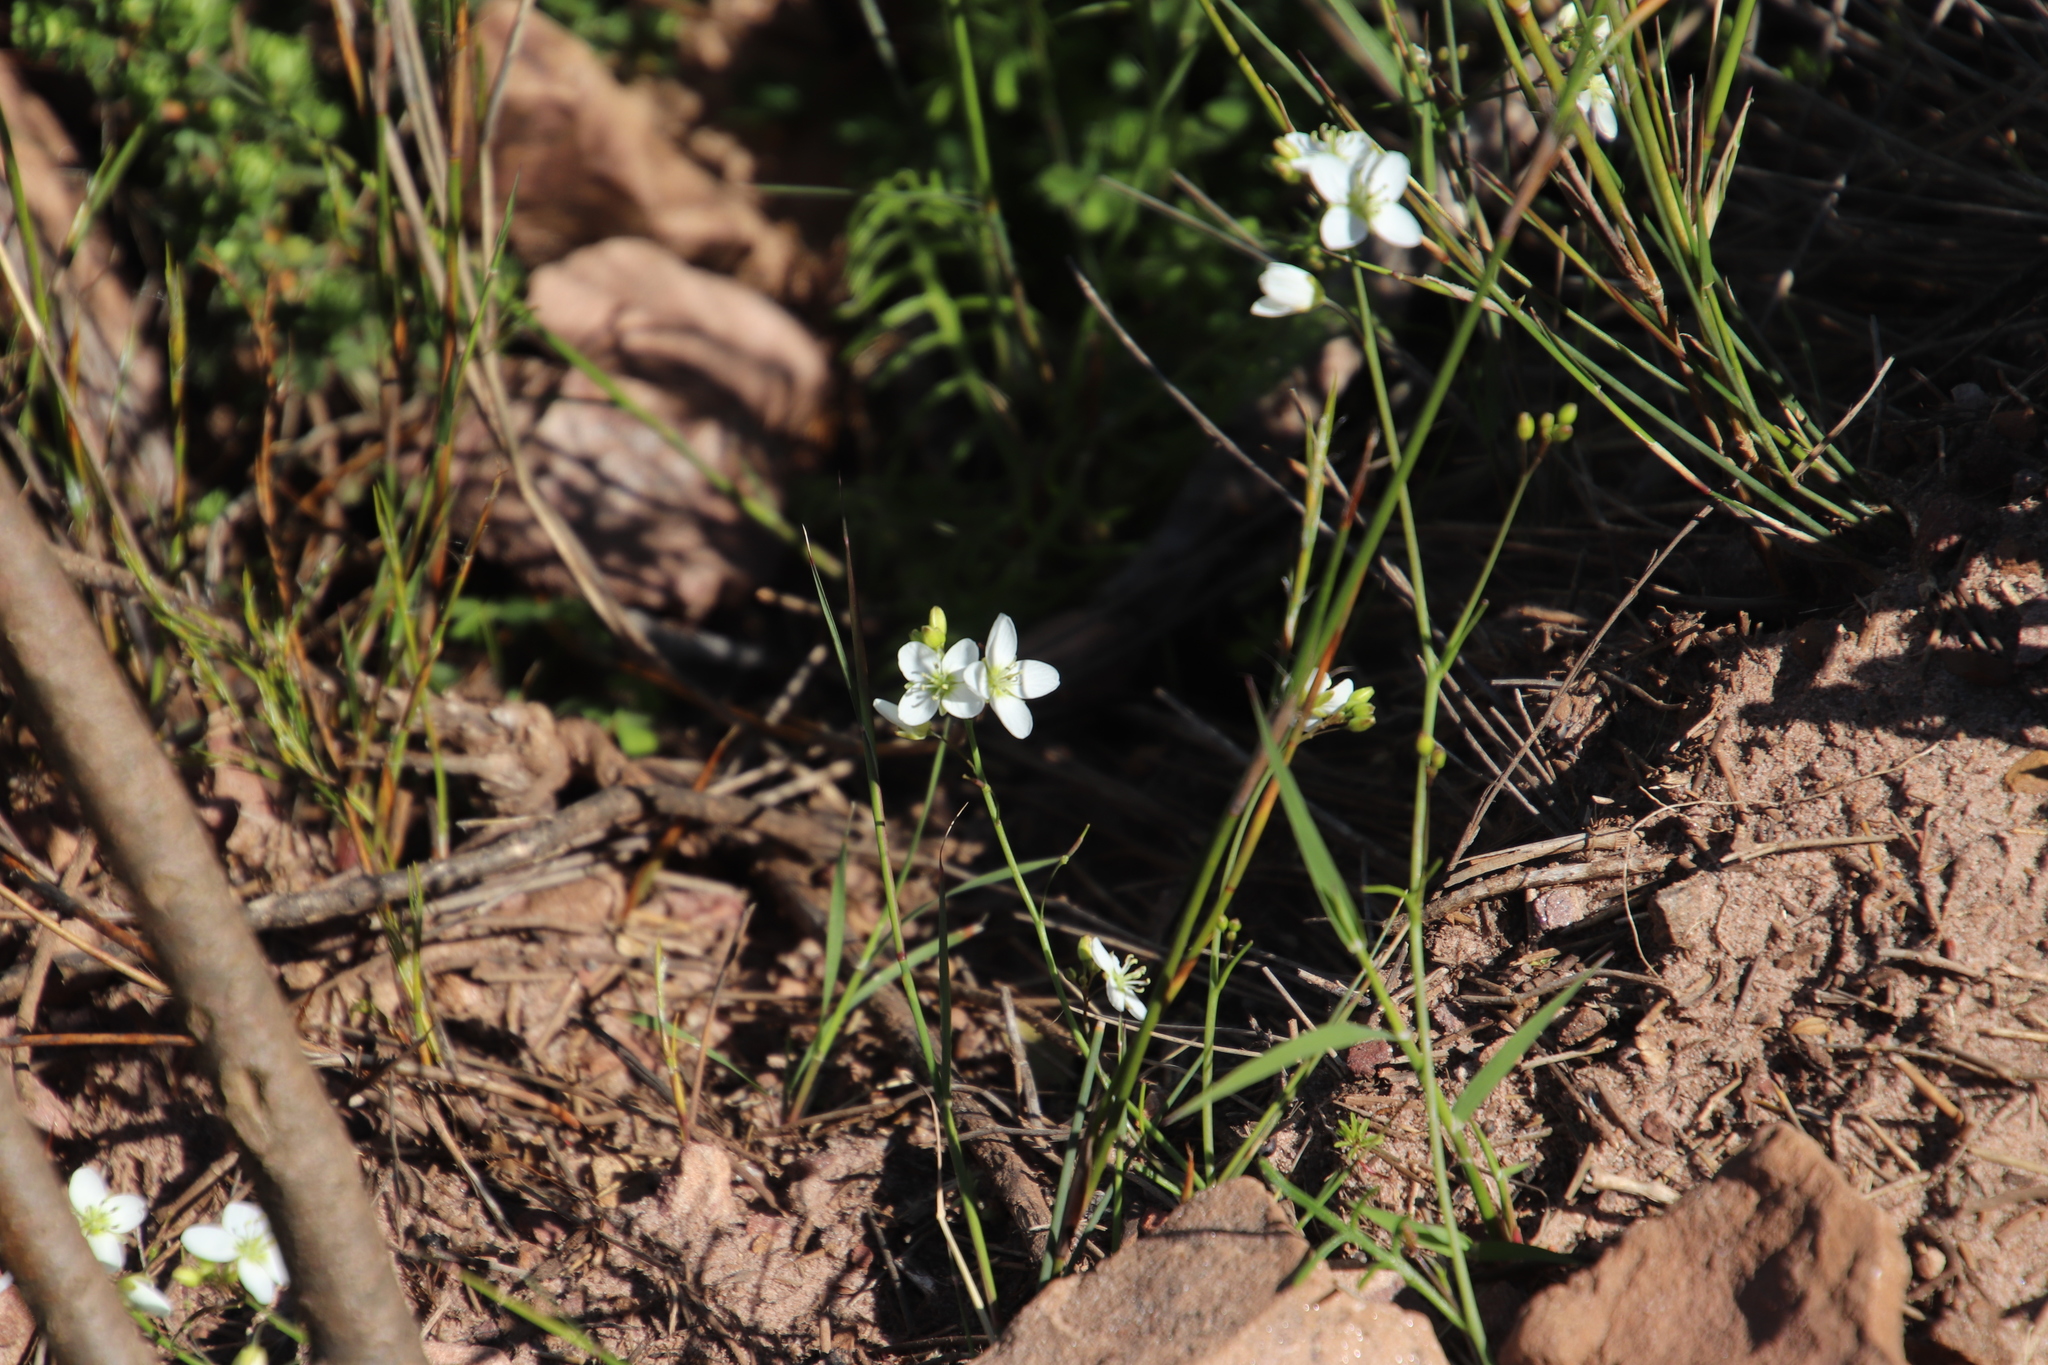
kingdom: Plantae
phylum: Tracheophyta
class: Magnoliopsida
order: Brassicales
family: Brassicaceae
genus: Heliophila
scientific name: Heliophila meyeri
